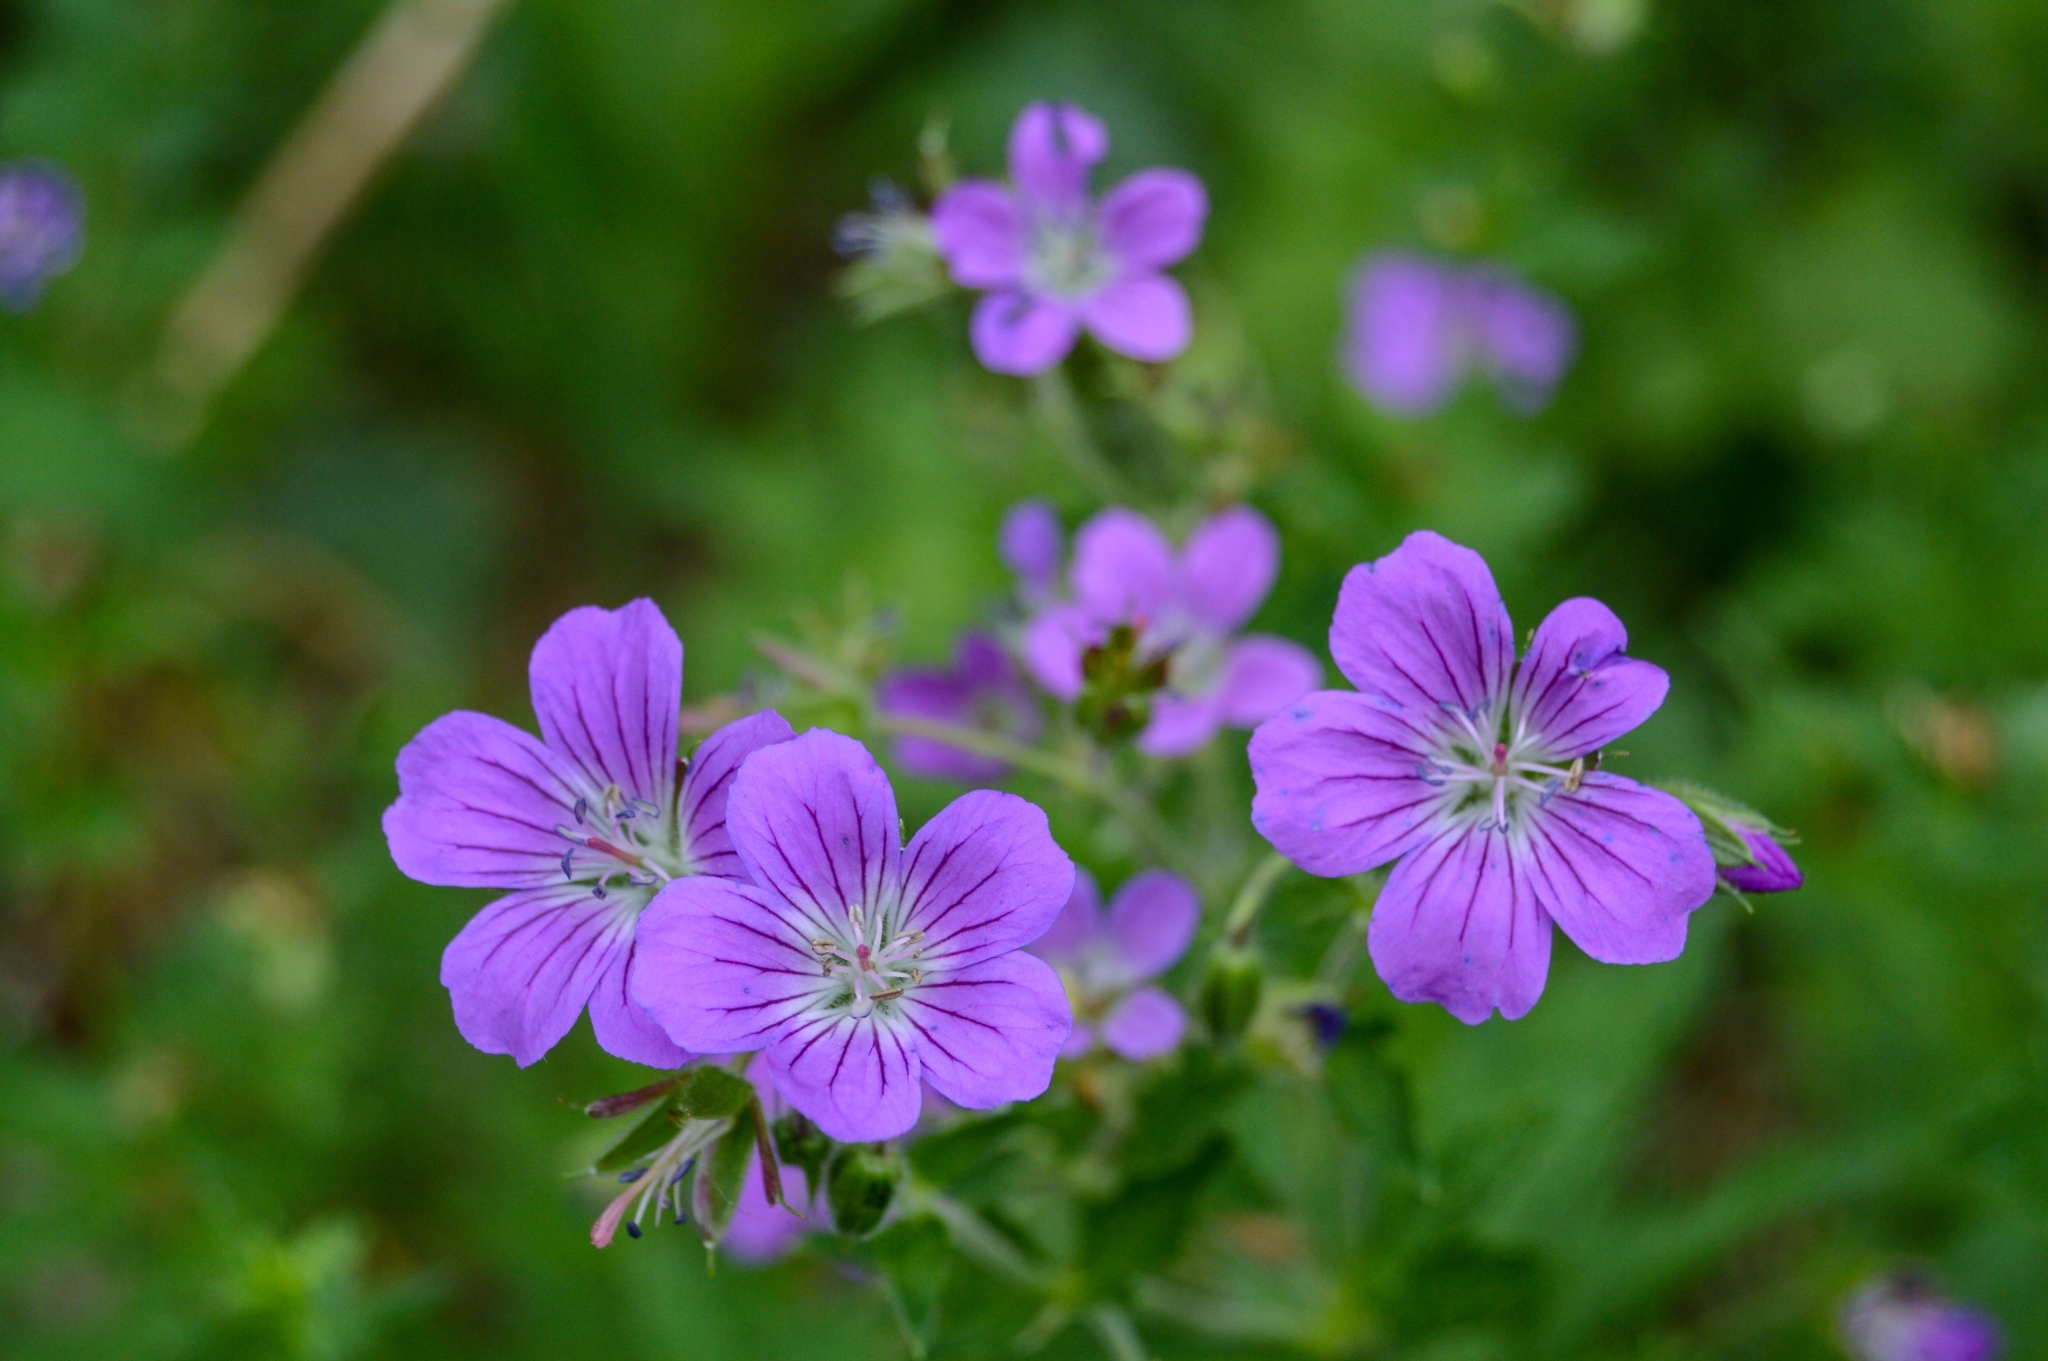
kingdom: Plantae
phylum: Tracheophyta
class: Magnoliopsida
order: Geraniales
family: Geraniaceae
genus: Geranium
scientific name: Geranium sylvaticum
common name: Wood crane's-bill
